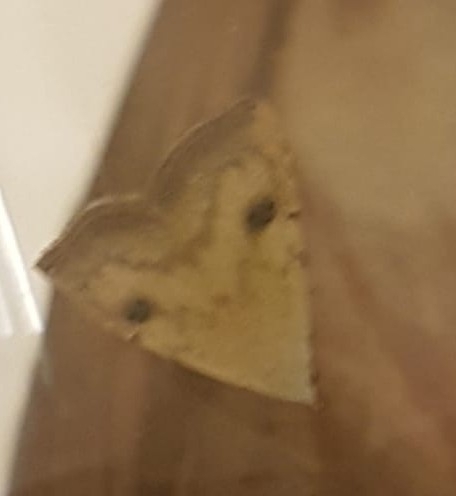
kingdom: Animalia
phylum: Arthropoda
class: Insecta
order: Lepidoptera
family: Erebidae
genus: Rivula
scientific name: Rivula sericealis
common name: Straw dot
